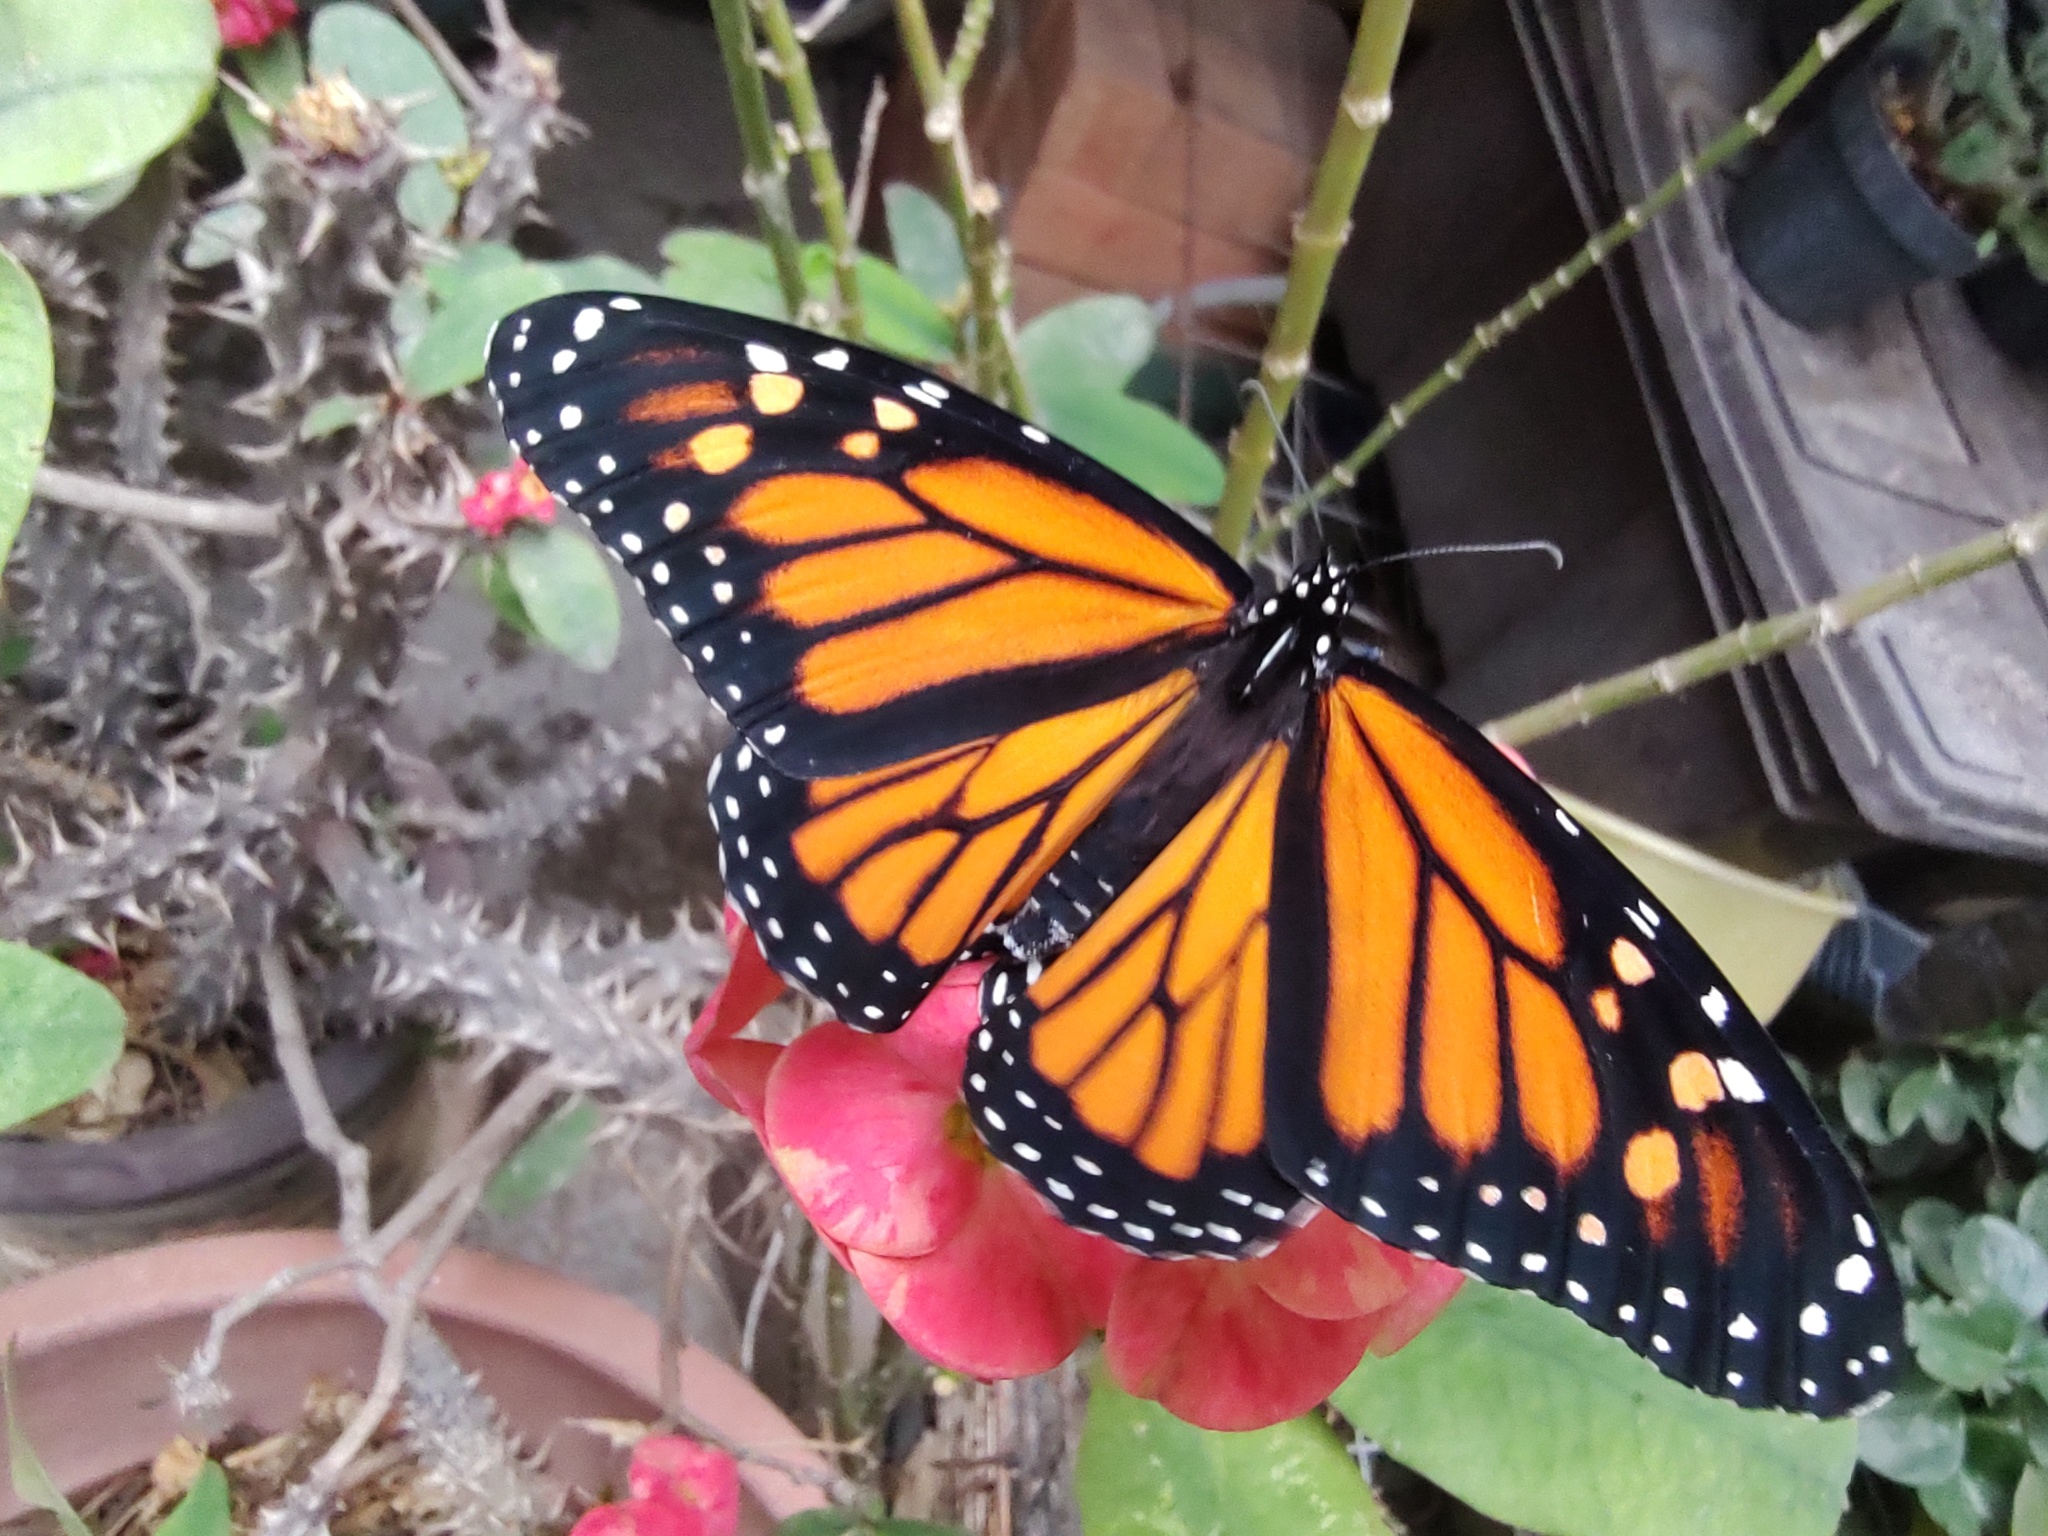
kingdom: Animalia
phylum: Arthropoda
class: Insecta
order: Lepidoptera
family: Nymphalidae
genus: Danaus
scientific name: Danaus plexippus
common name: Monarch
